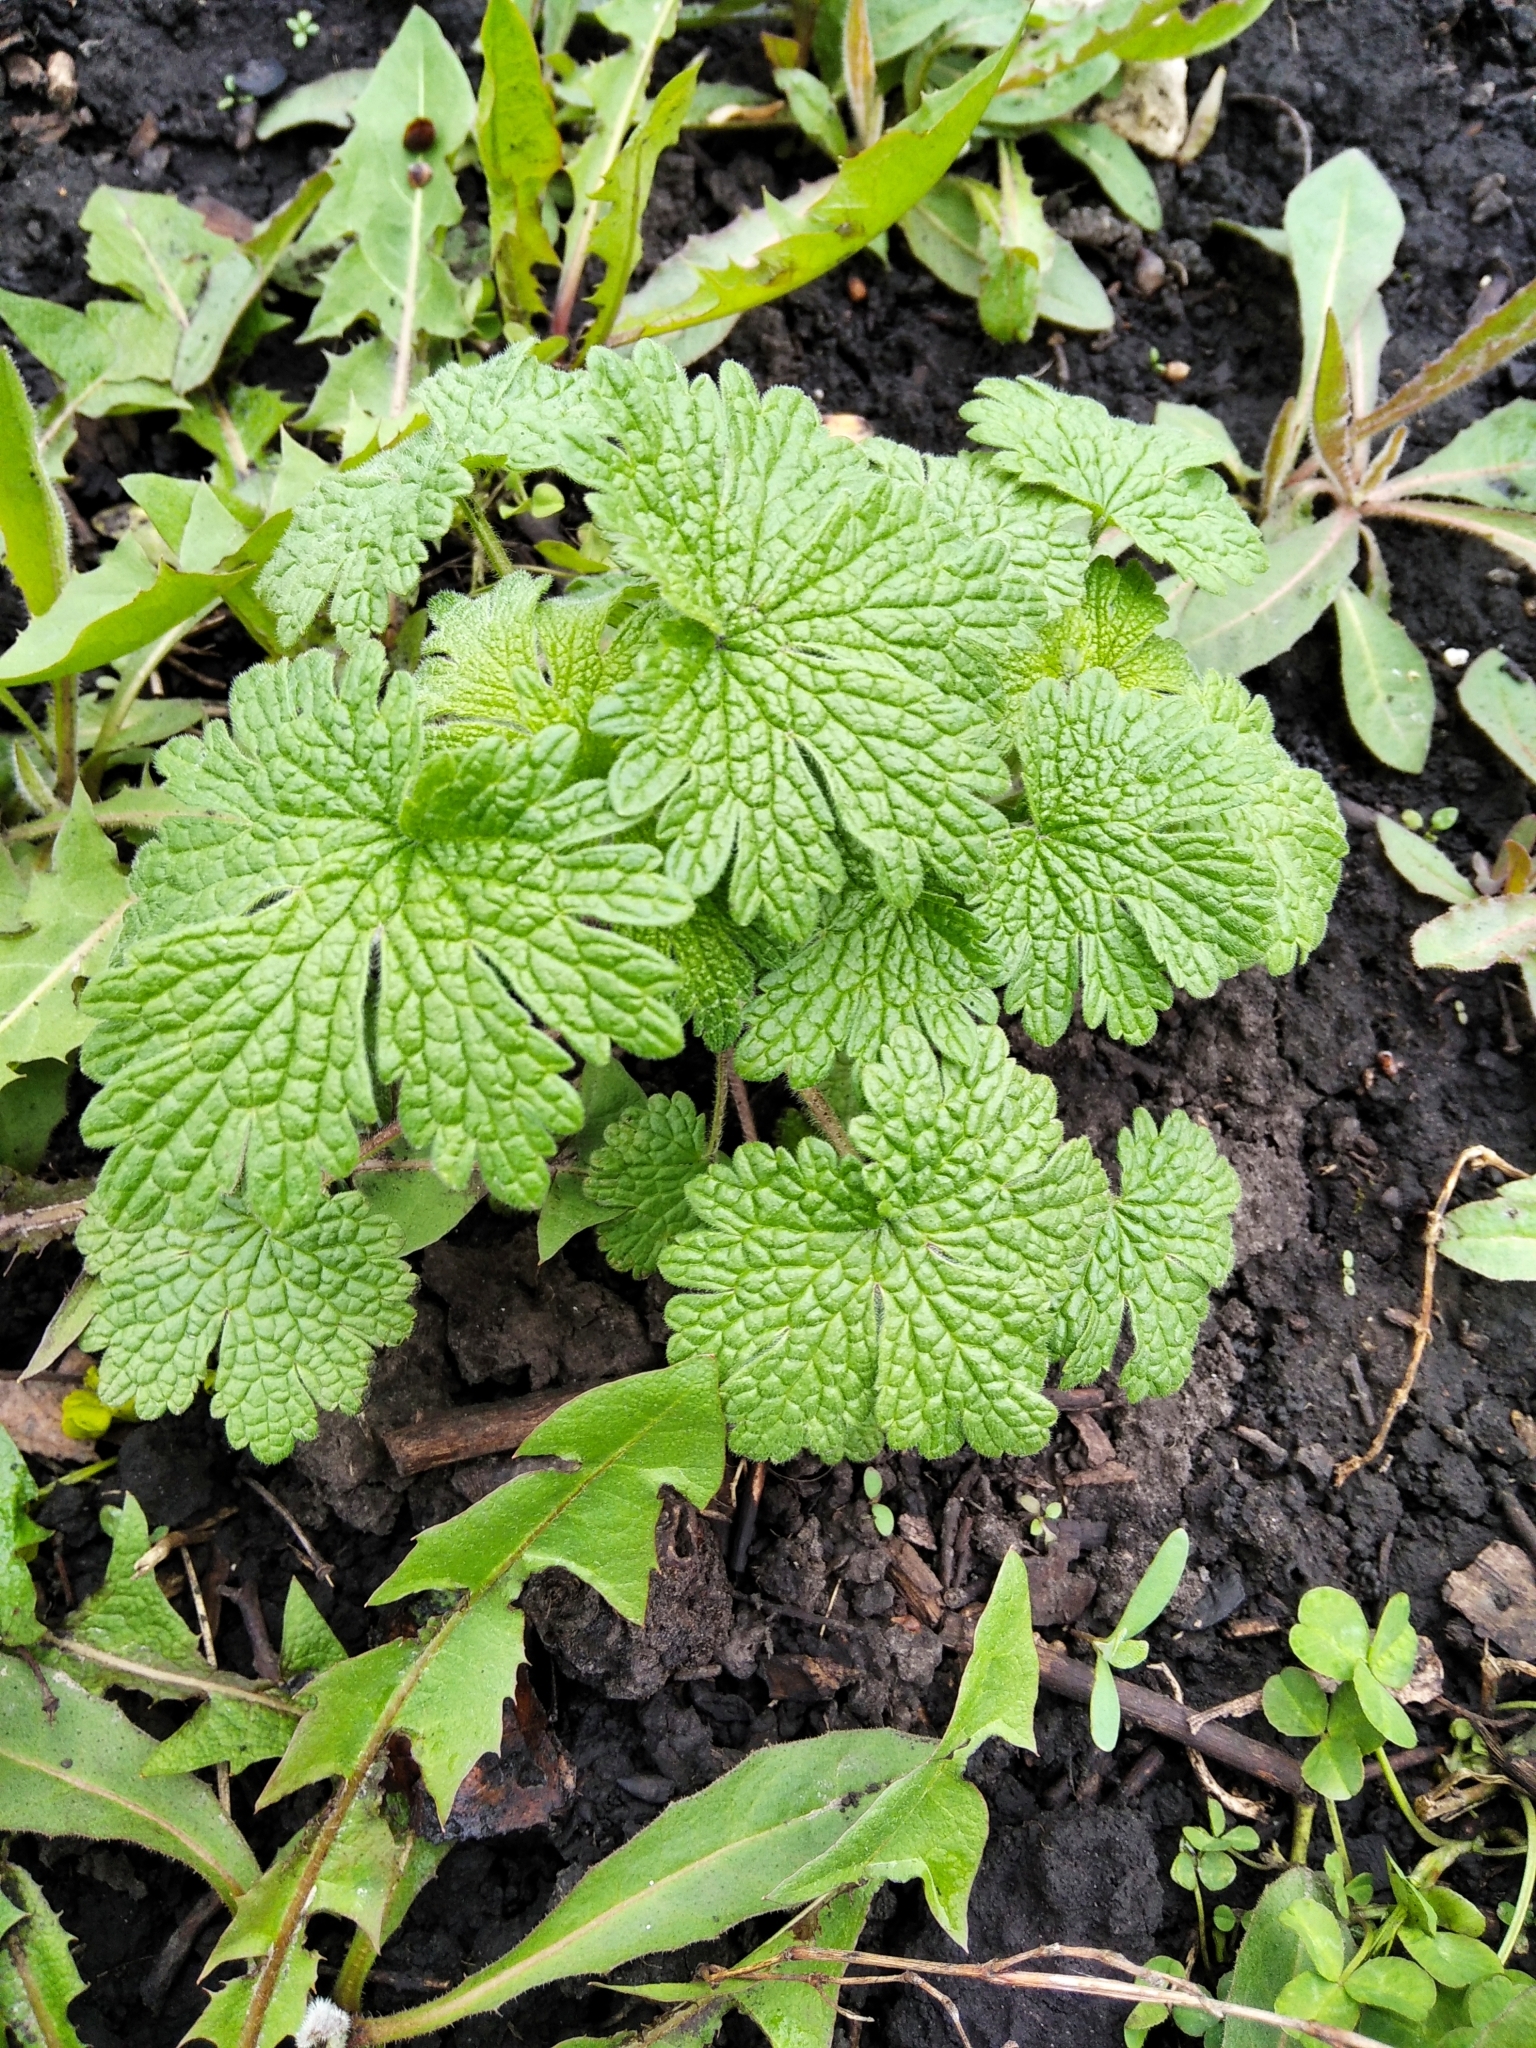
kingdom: Plantae
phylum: Tracheophyta
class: Magnoliopsida
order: Lamiales
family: Lamiaceae
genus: Leonurus
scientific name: Leonurus quinquelobatus
